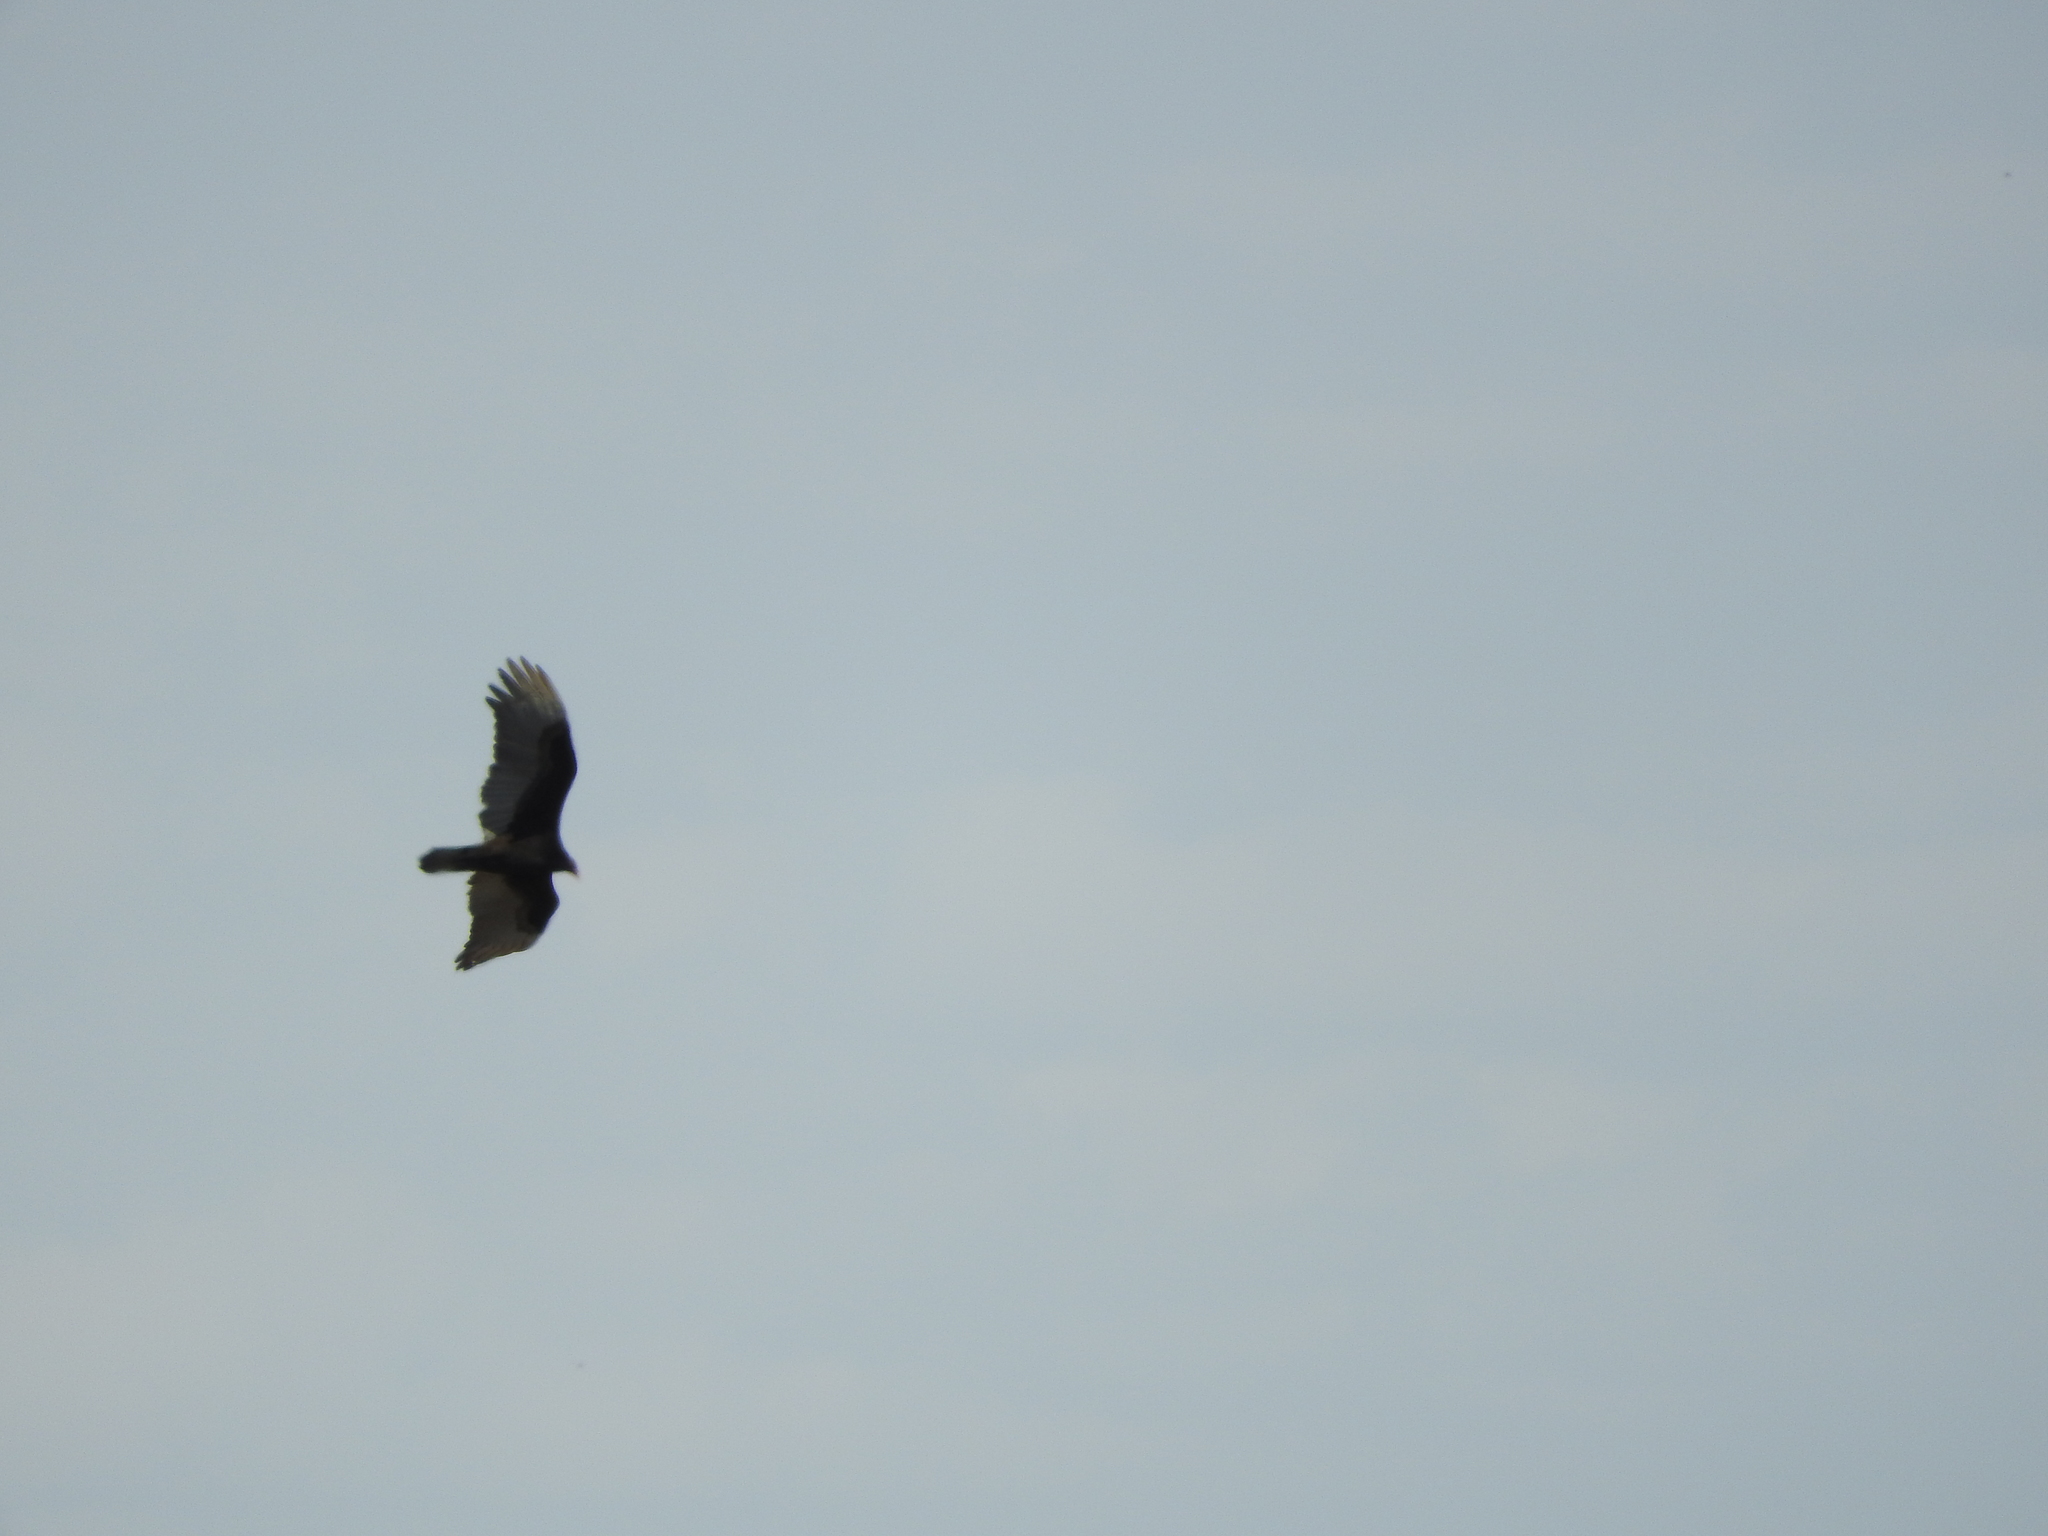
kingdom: Animalia
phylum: Chordata
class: Aves
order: Accipitriformes
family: Cathartidae
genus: Cathartes
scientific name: Cathartes aura
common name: Turkey vulture
